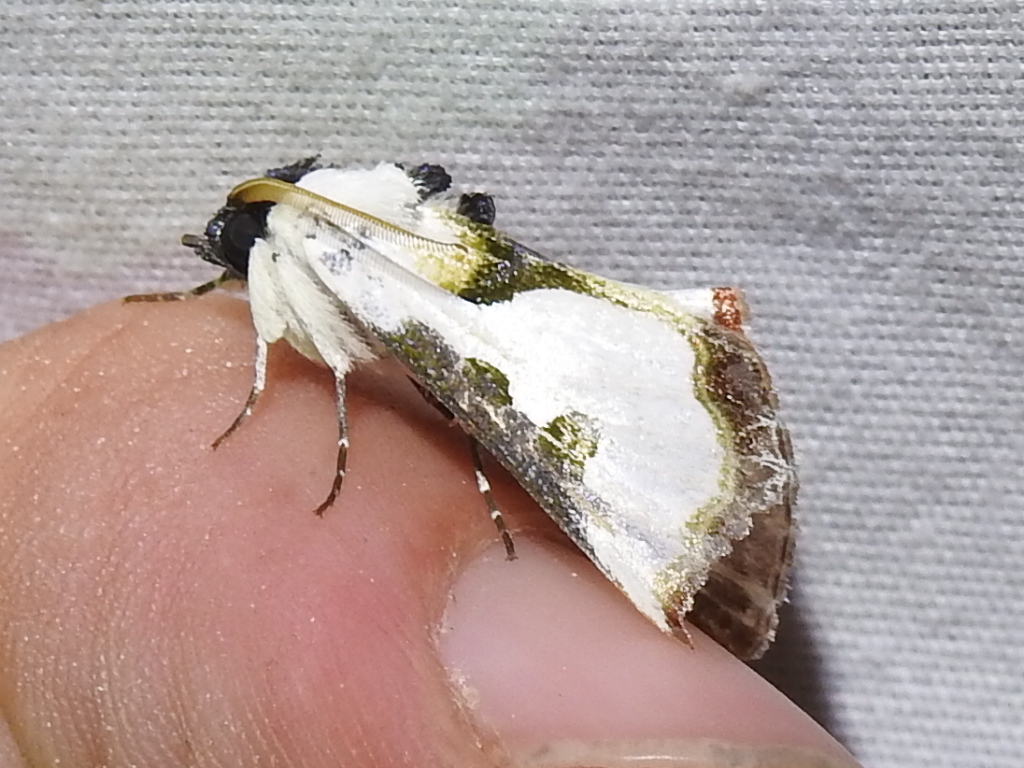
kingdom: Animalia
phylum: Arthropoda
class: Insecta
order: Lepidoptera
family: Noctuidae
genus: Xerociris
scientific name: Xerociris wilsonii
